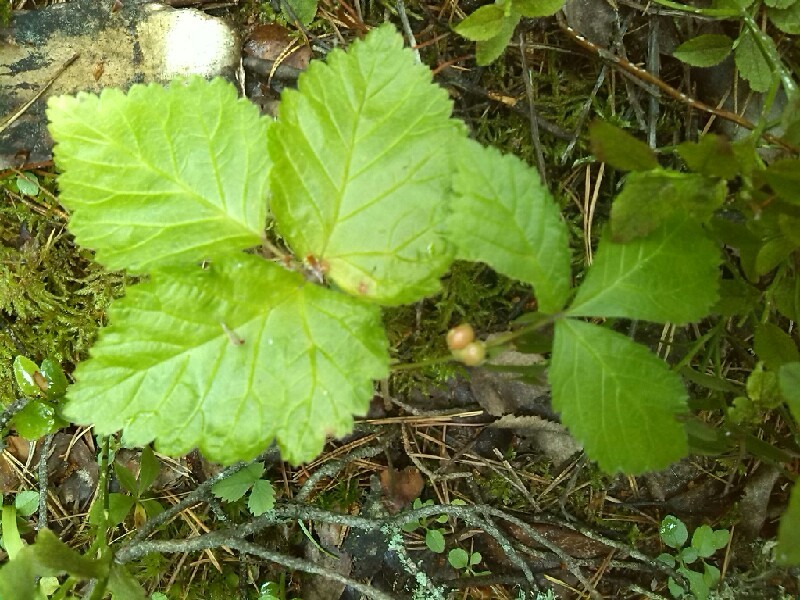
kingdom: Plantae
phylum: Tracheophyta
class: Magnoliopsida
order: Rosales
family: Rosaceae
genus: Rubus
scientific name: Rubus saxatilis
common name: Stone bramble
